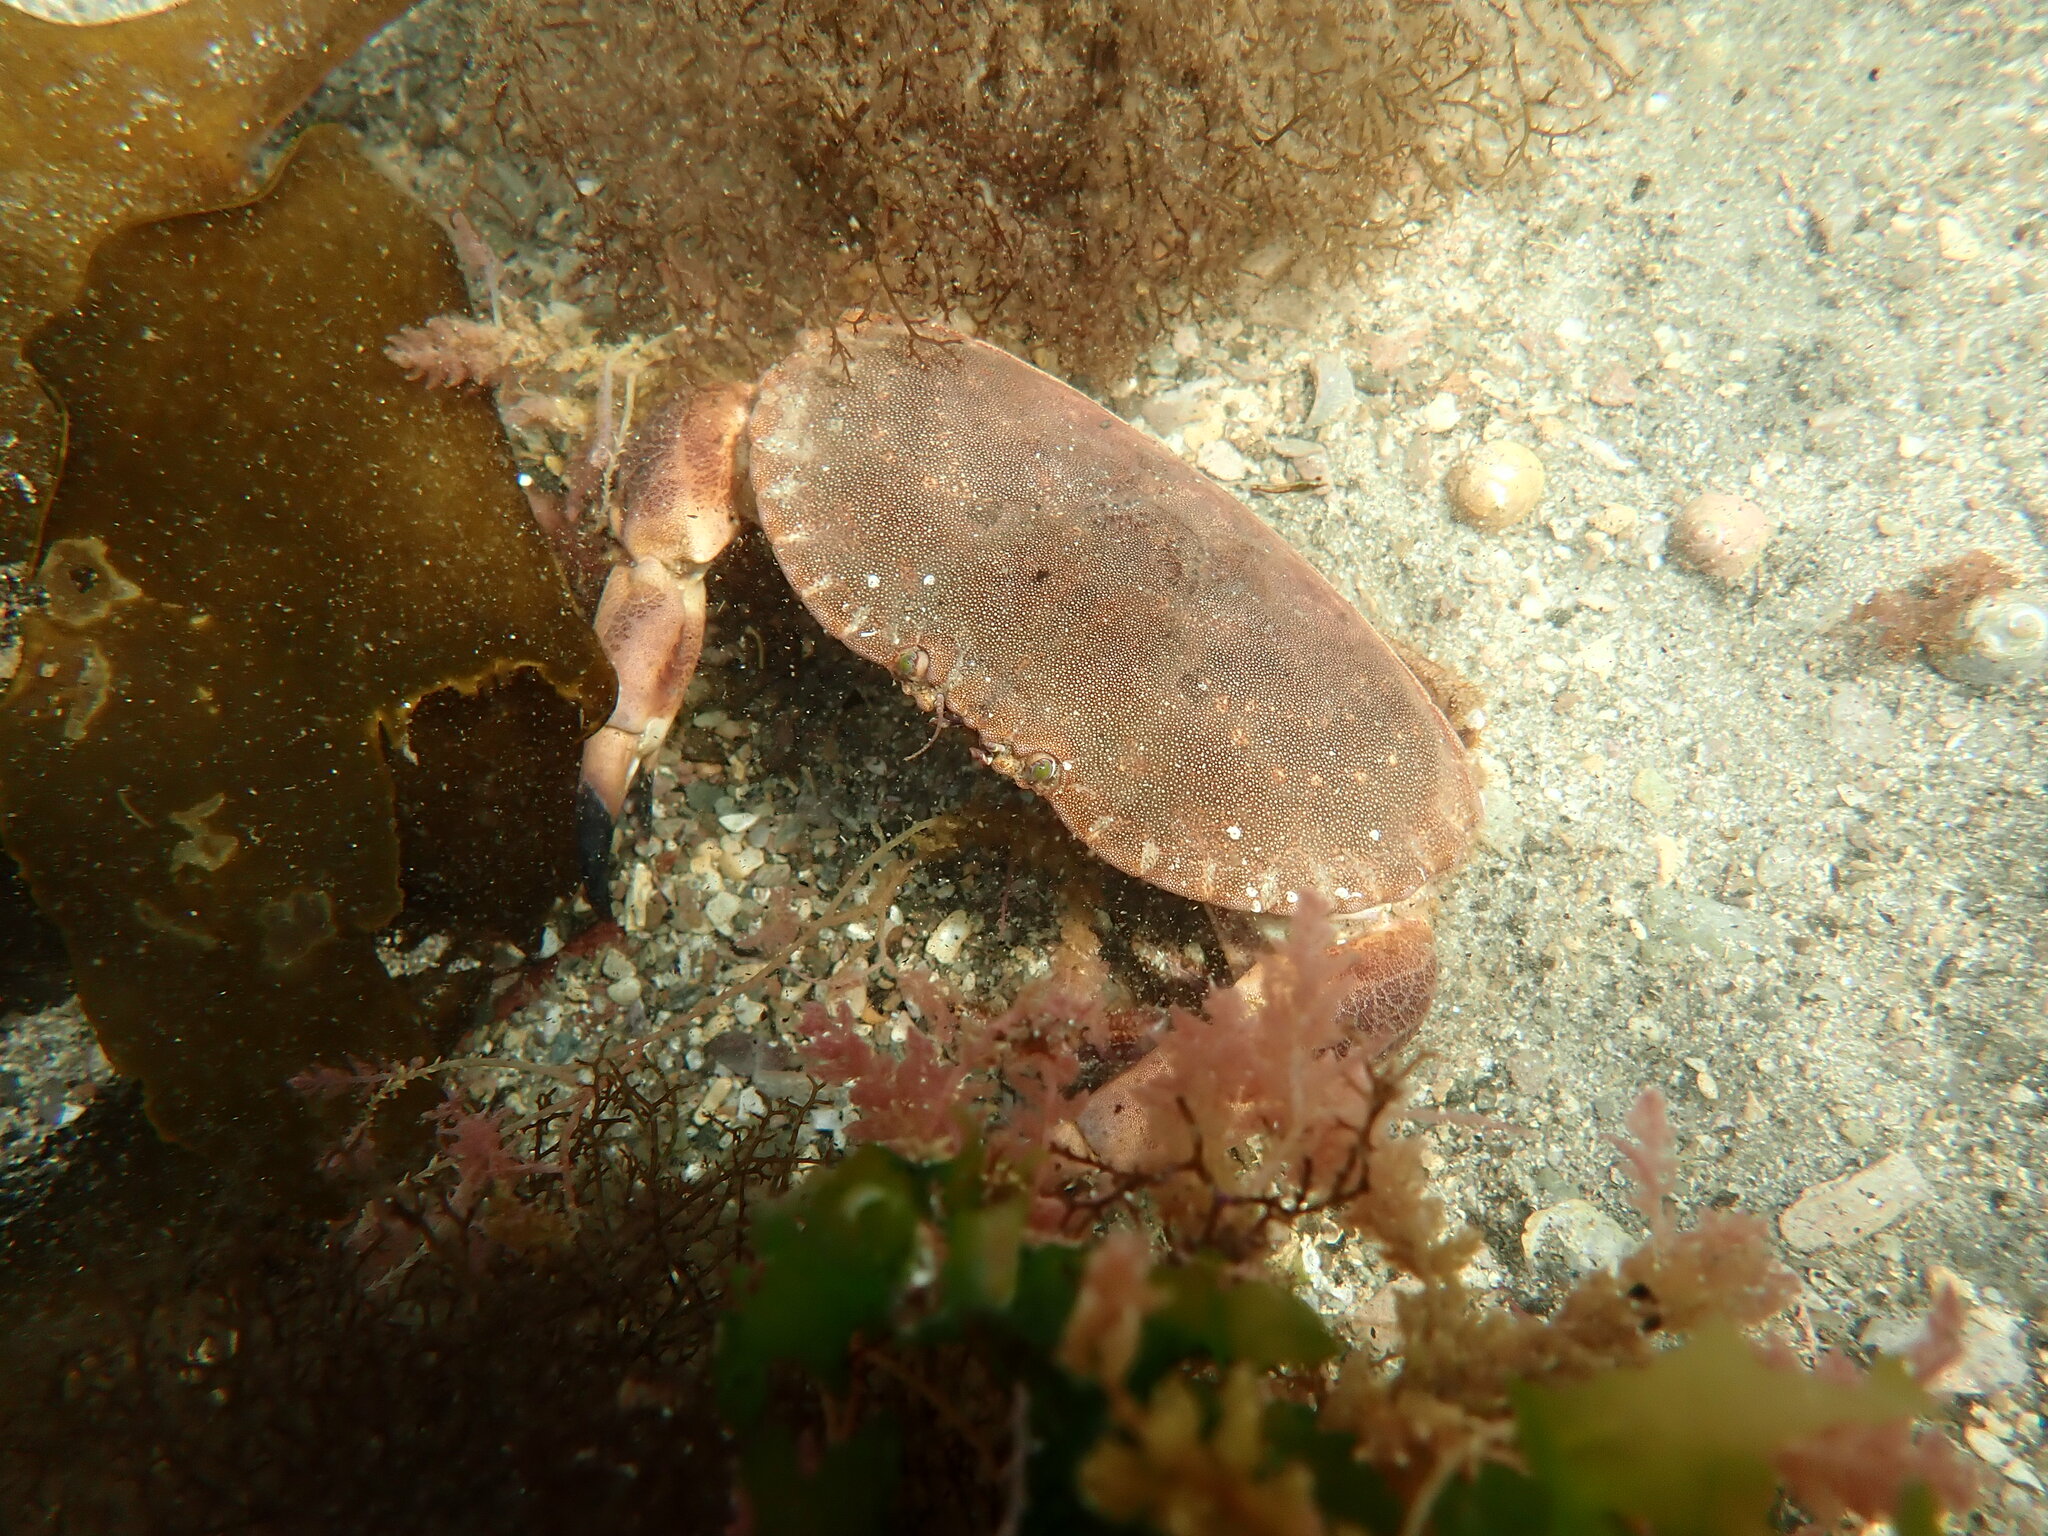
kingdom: Animalia
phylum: Arthropoda
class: Malacostraca
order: Decapoda
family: Cancridae
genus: Cancer
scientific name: Cancer pagurus
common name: Edible crab
